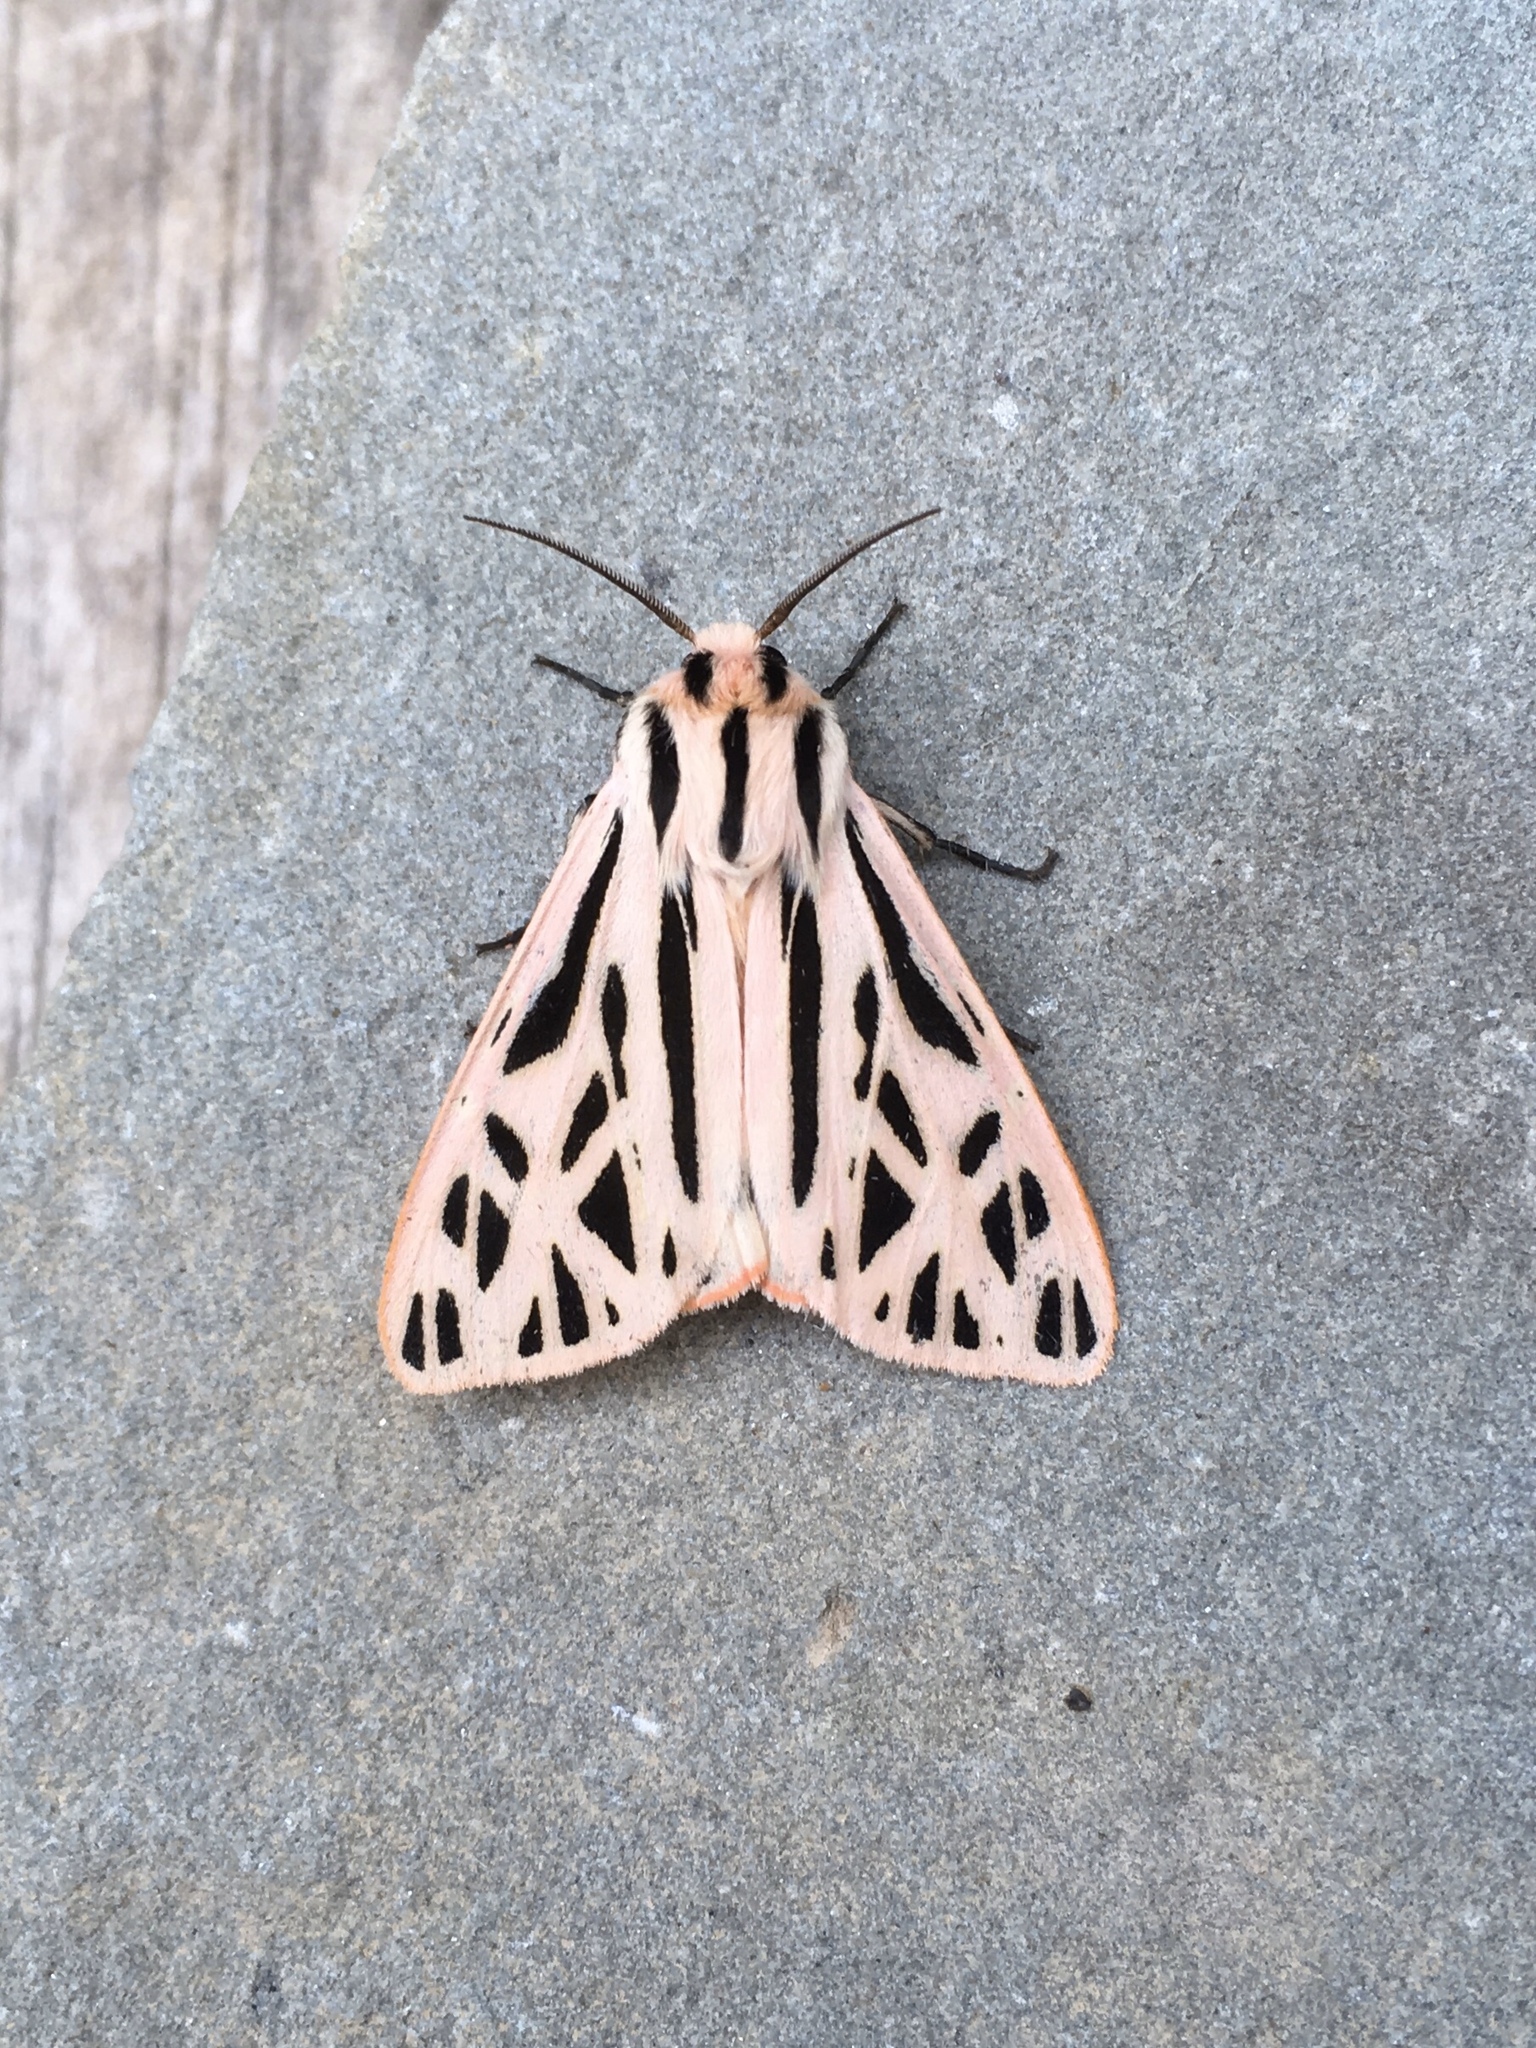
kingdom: Animalia
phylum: Arthropoda
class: Insecta
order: Lepidoptera
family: Erebidae
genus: Apantesis
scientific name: Apantesis arge
